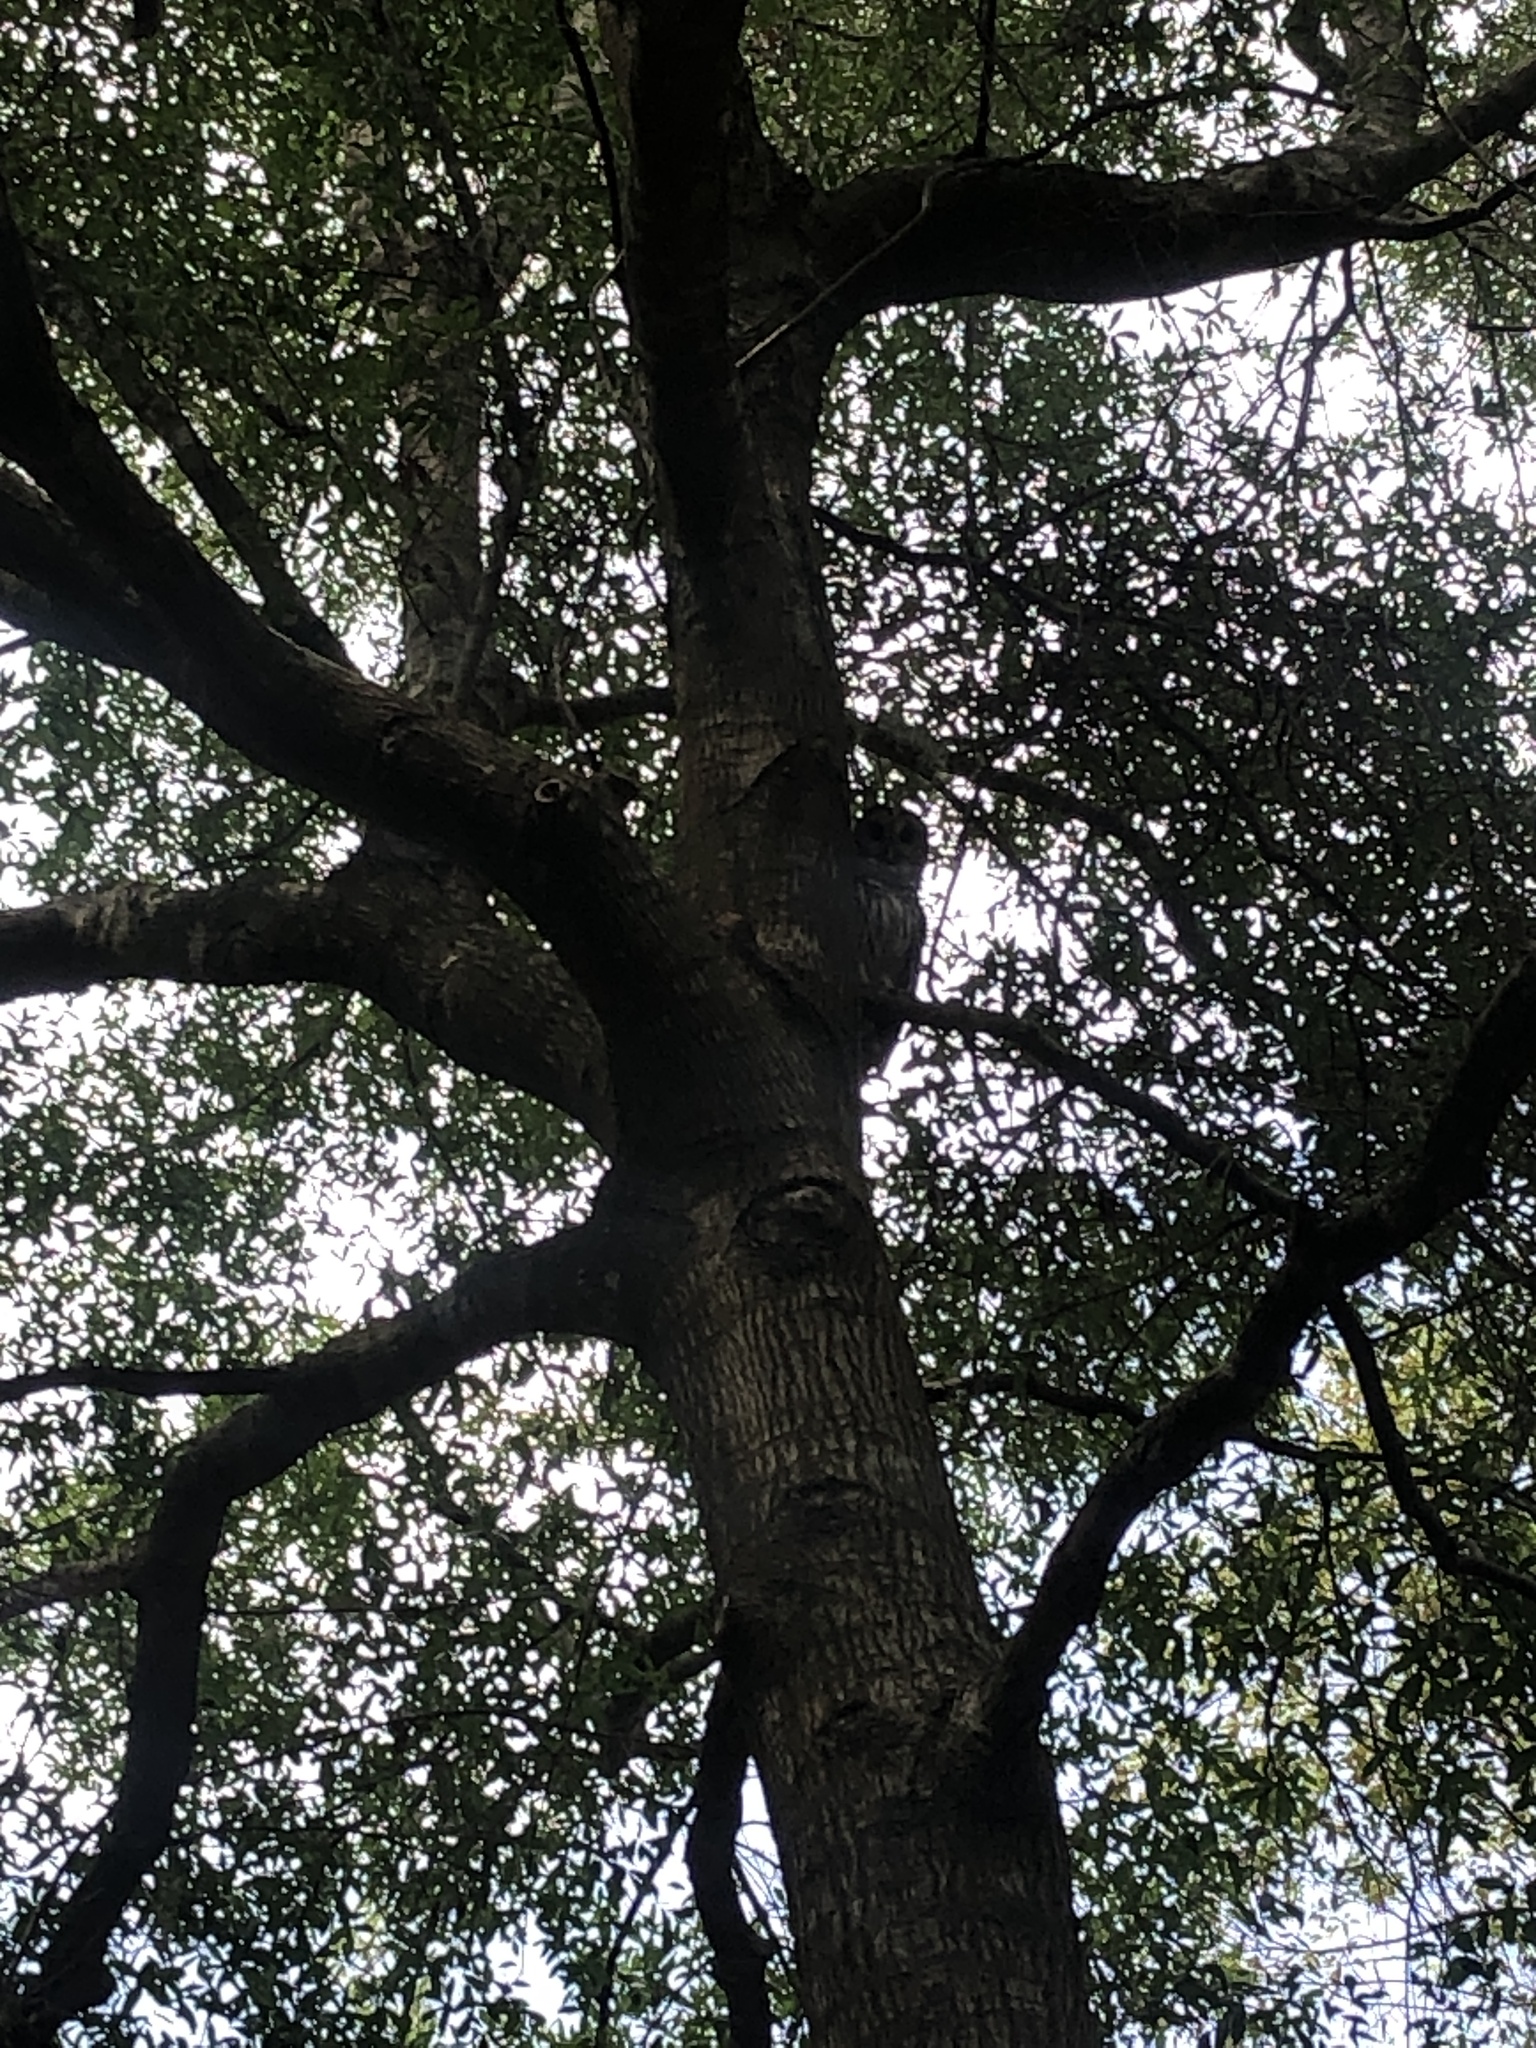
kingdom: Animalia
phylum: Chordata
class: Aves
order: Strigiformes
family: Strigidae
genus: Strix
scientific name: Strix varia
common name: Barred owl
